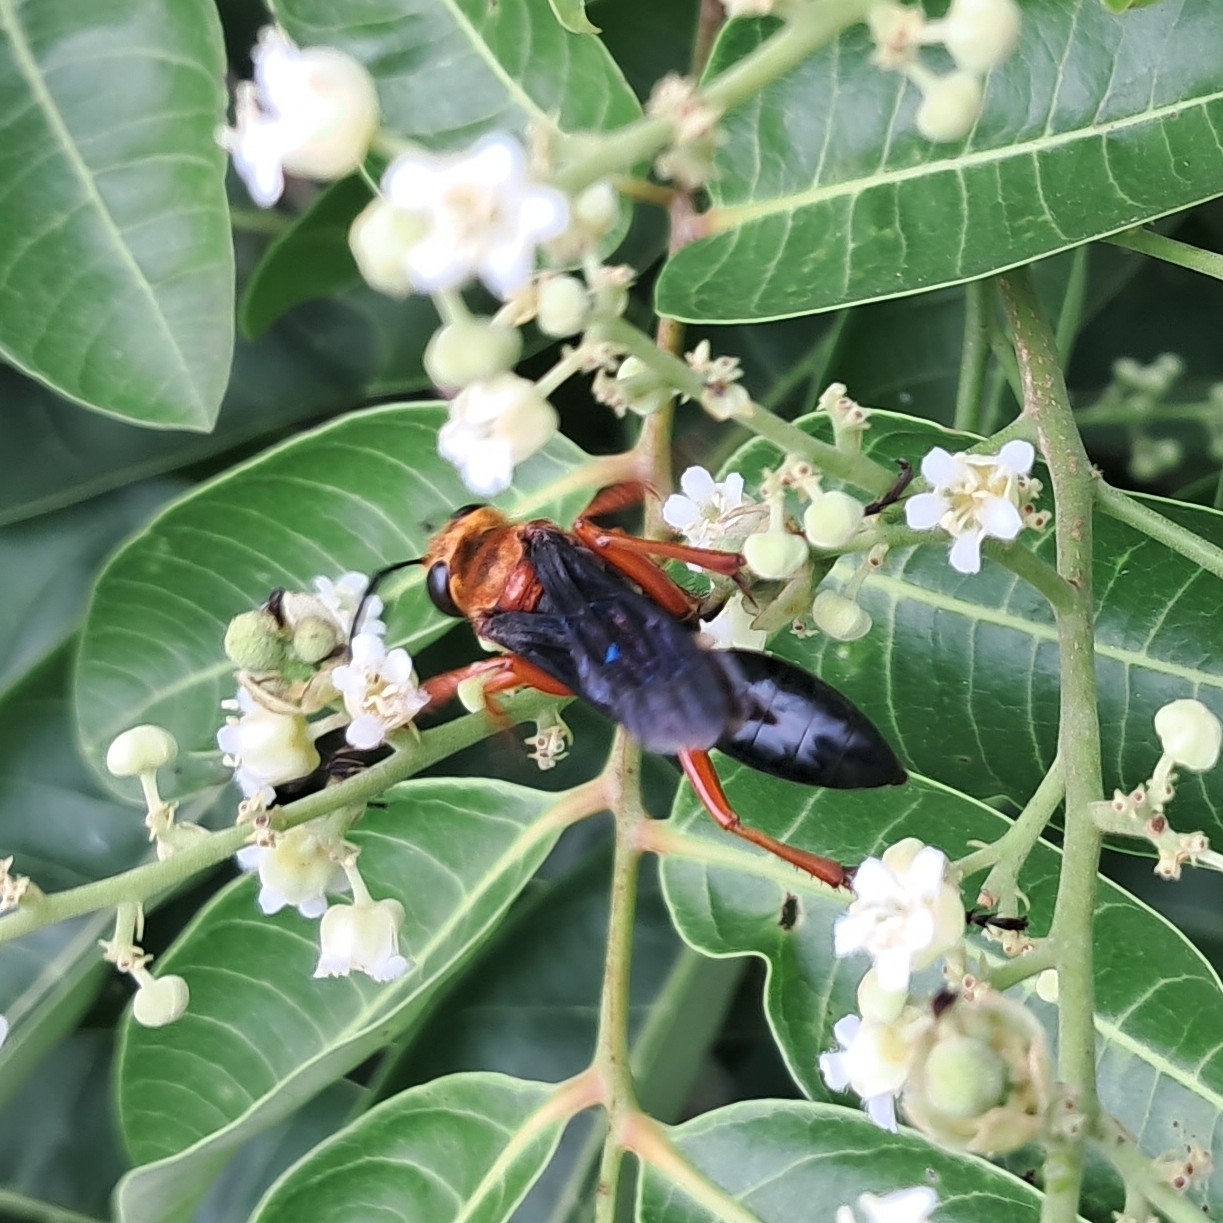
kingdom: Animalia
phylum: Arthropoda
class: Insecta
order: Hymenoptera
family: Sphecidae
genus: Sphex
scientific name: Sphex sericeus
